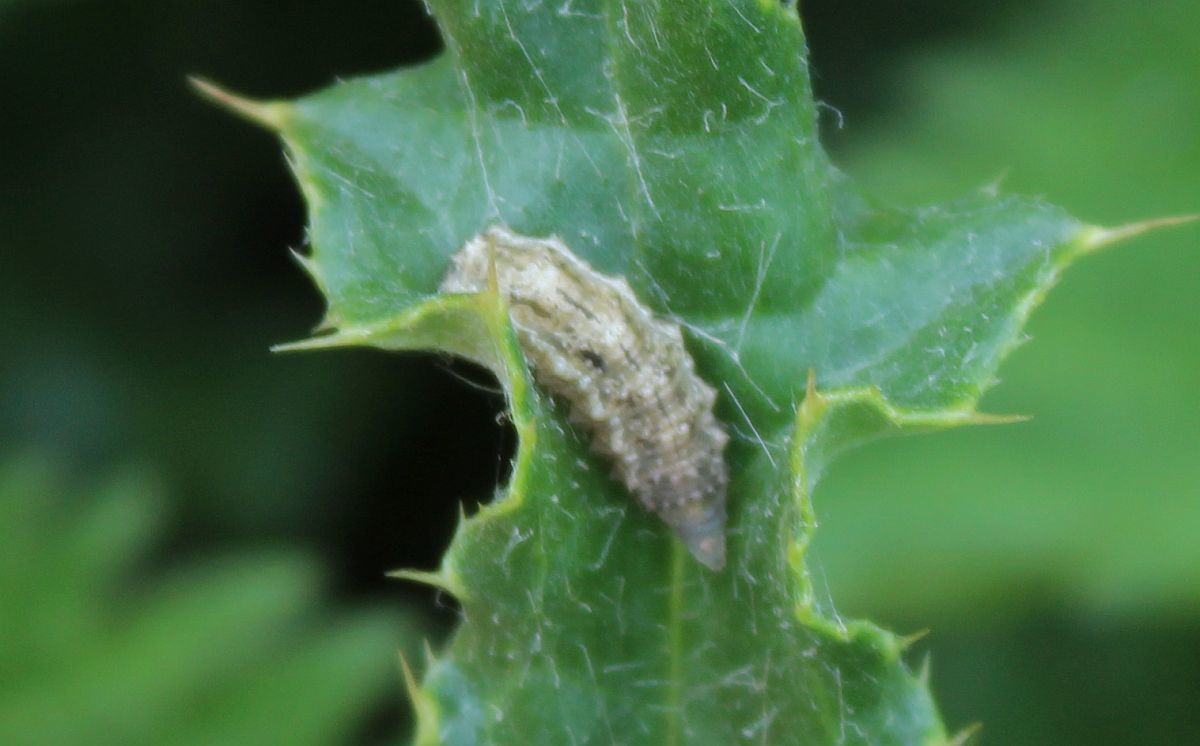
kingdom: Animalia
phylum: Arthropoda
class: Insecta
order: Diptera
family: Syrphidae
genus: Eupeodes
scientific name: Eupeodes
